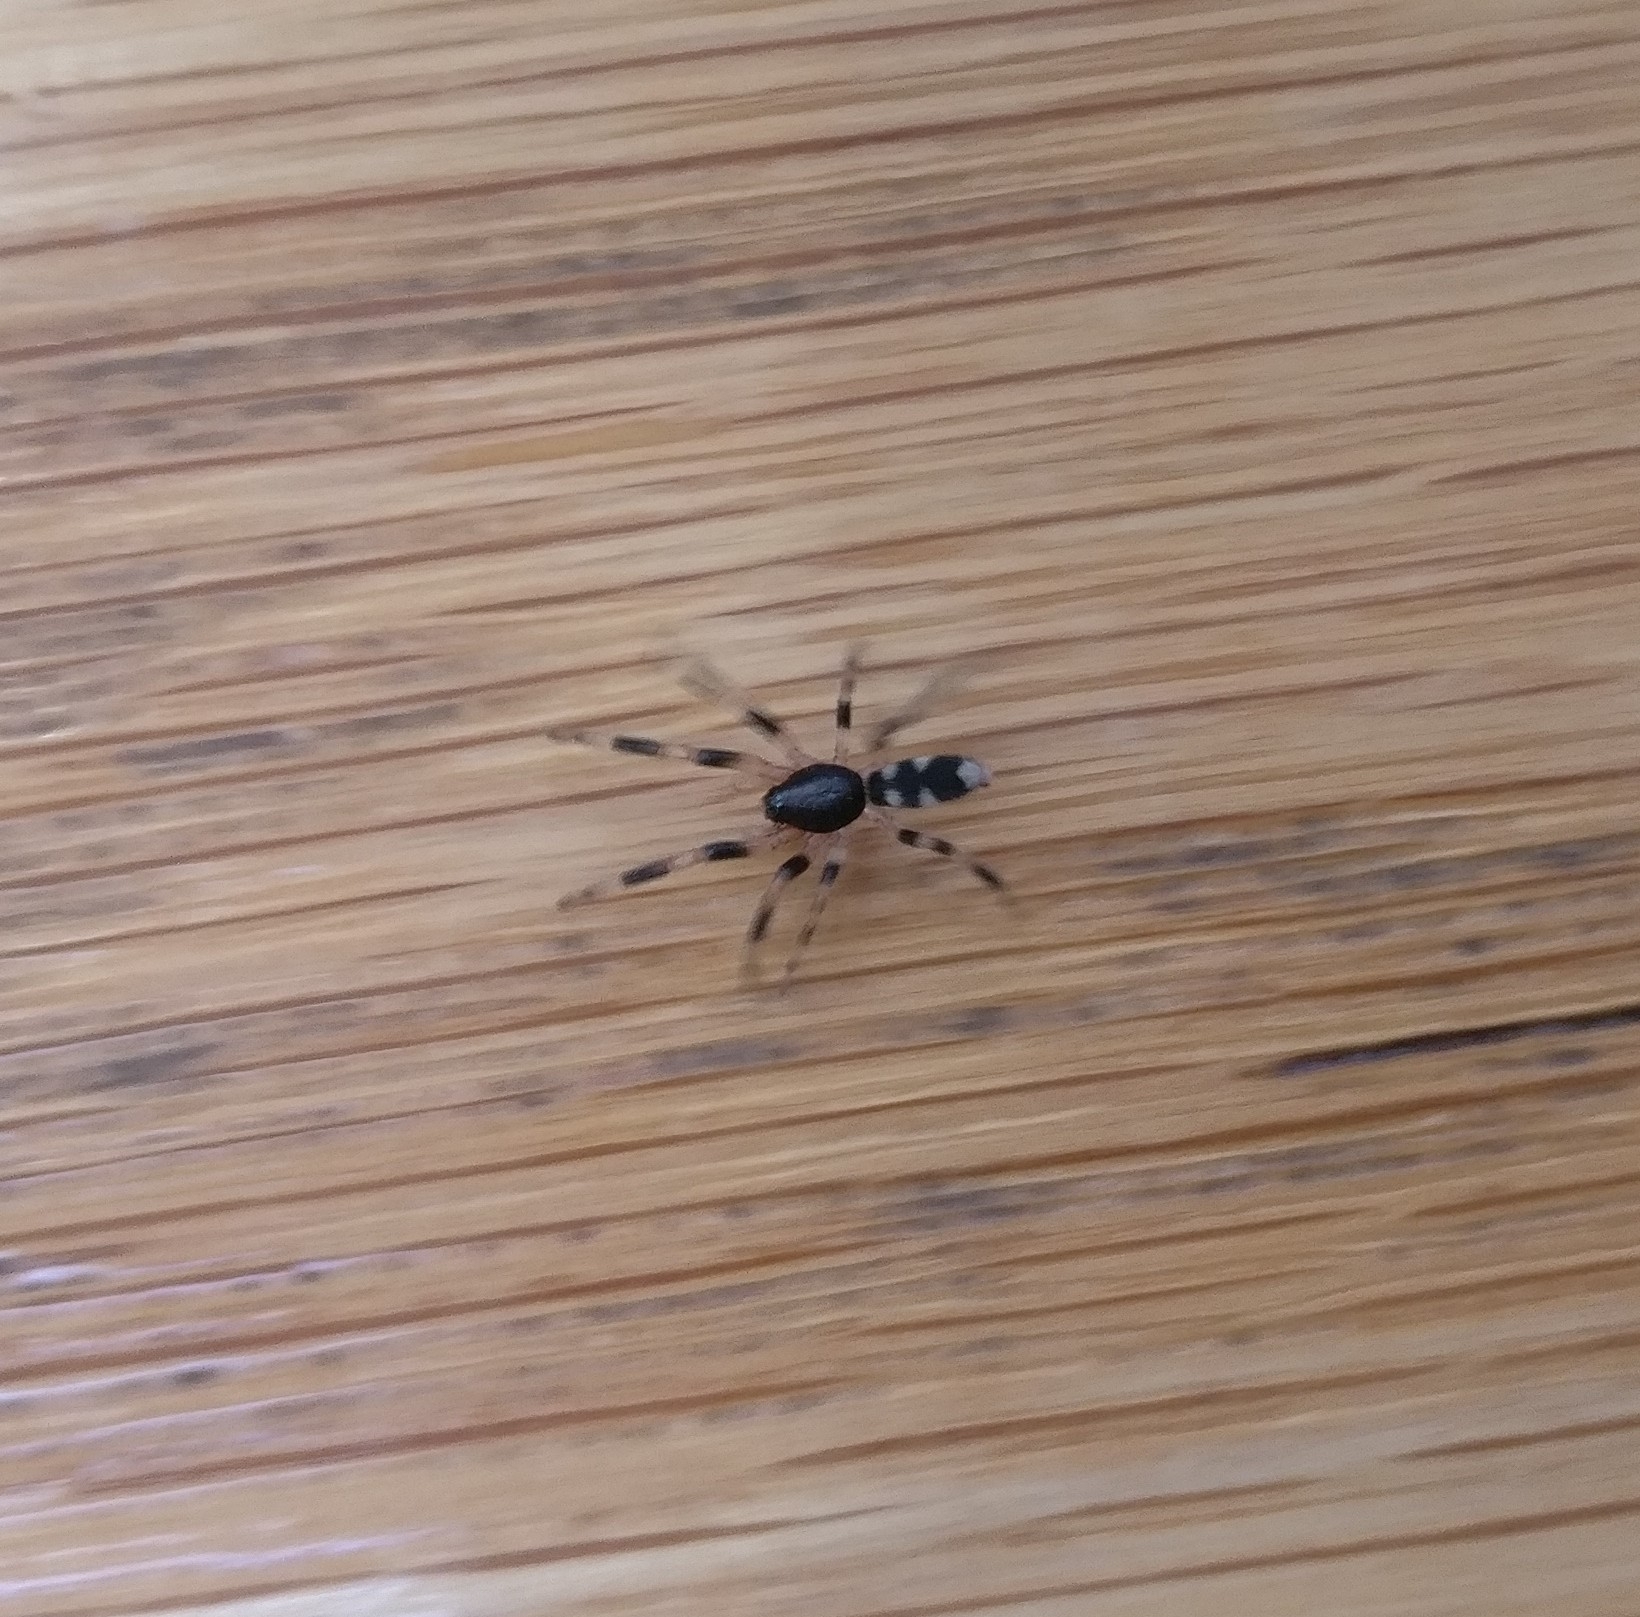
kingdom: Animalia
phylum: Arthropoda
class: Arachnida
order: Araneae
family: Lamponidae
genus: Lampona
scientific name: Lampona cylindrata
